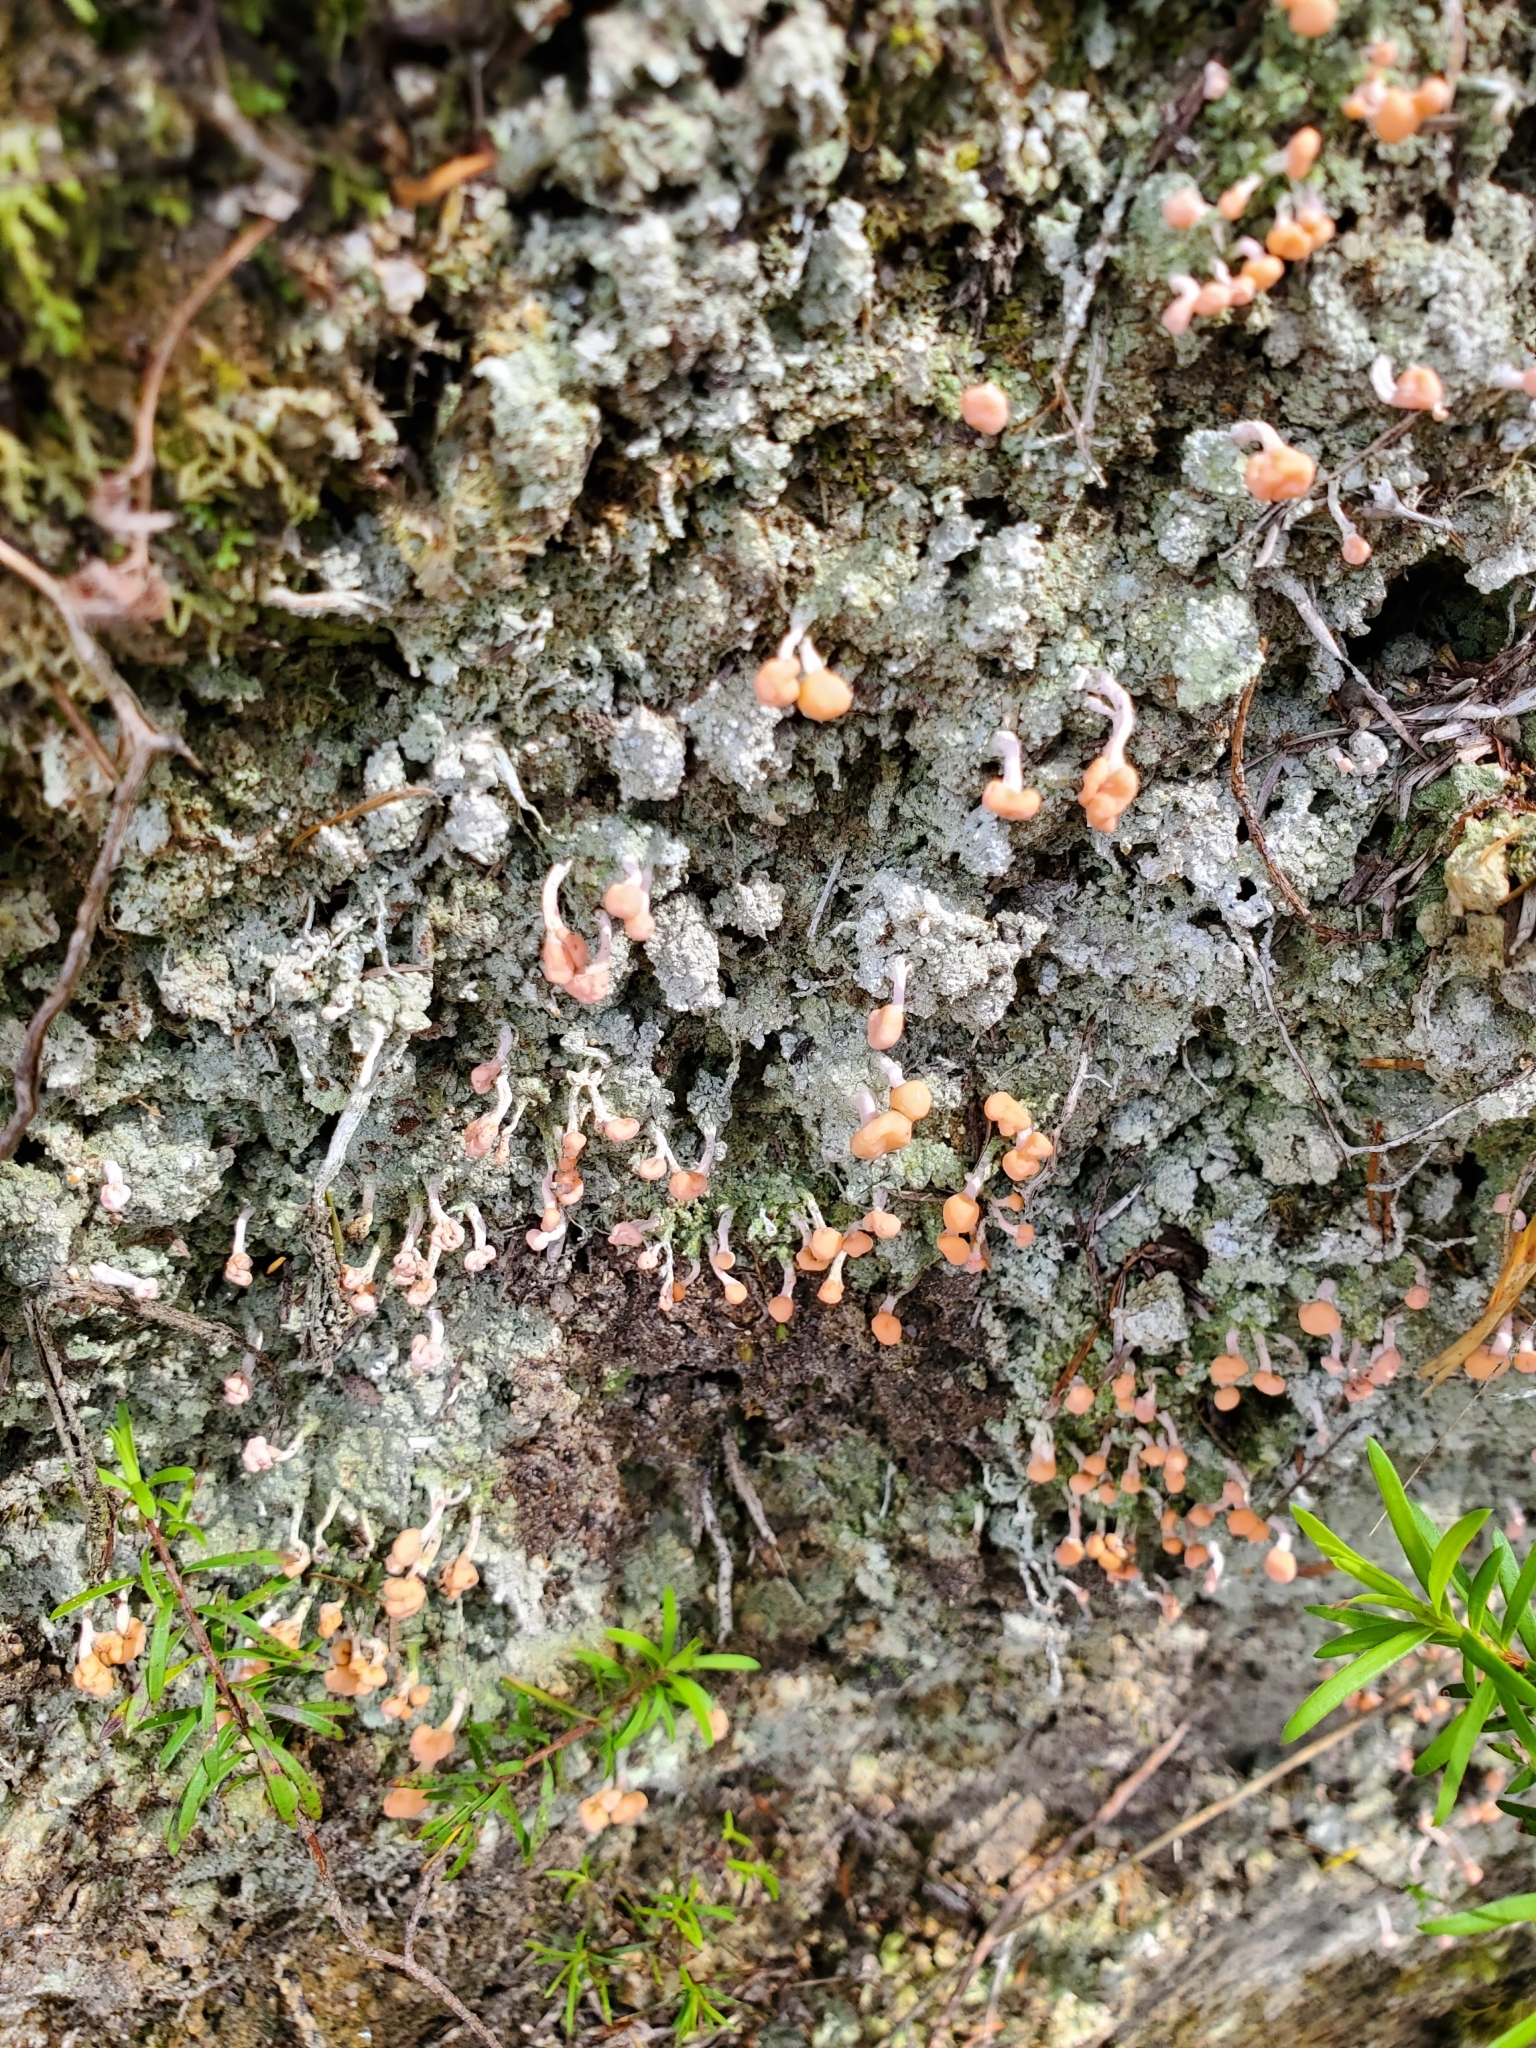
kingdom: Fungi
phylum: Ascomycota
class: Lecanoromycetes
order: Pertusariales
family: Icmadophilaceae
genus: Dibaeis
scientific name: Dibaeis arcuata
